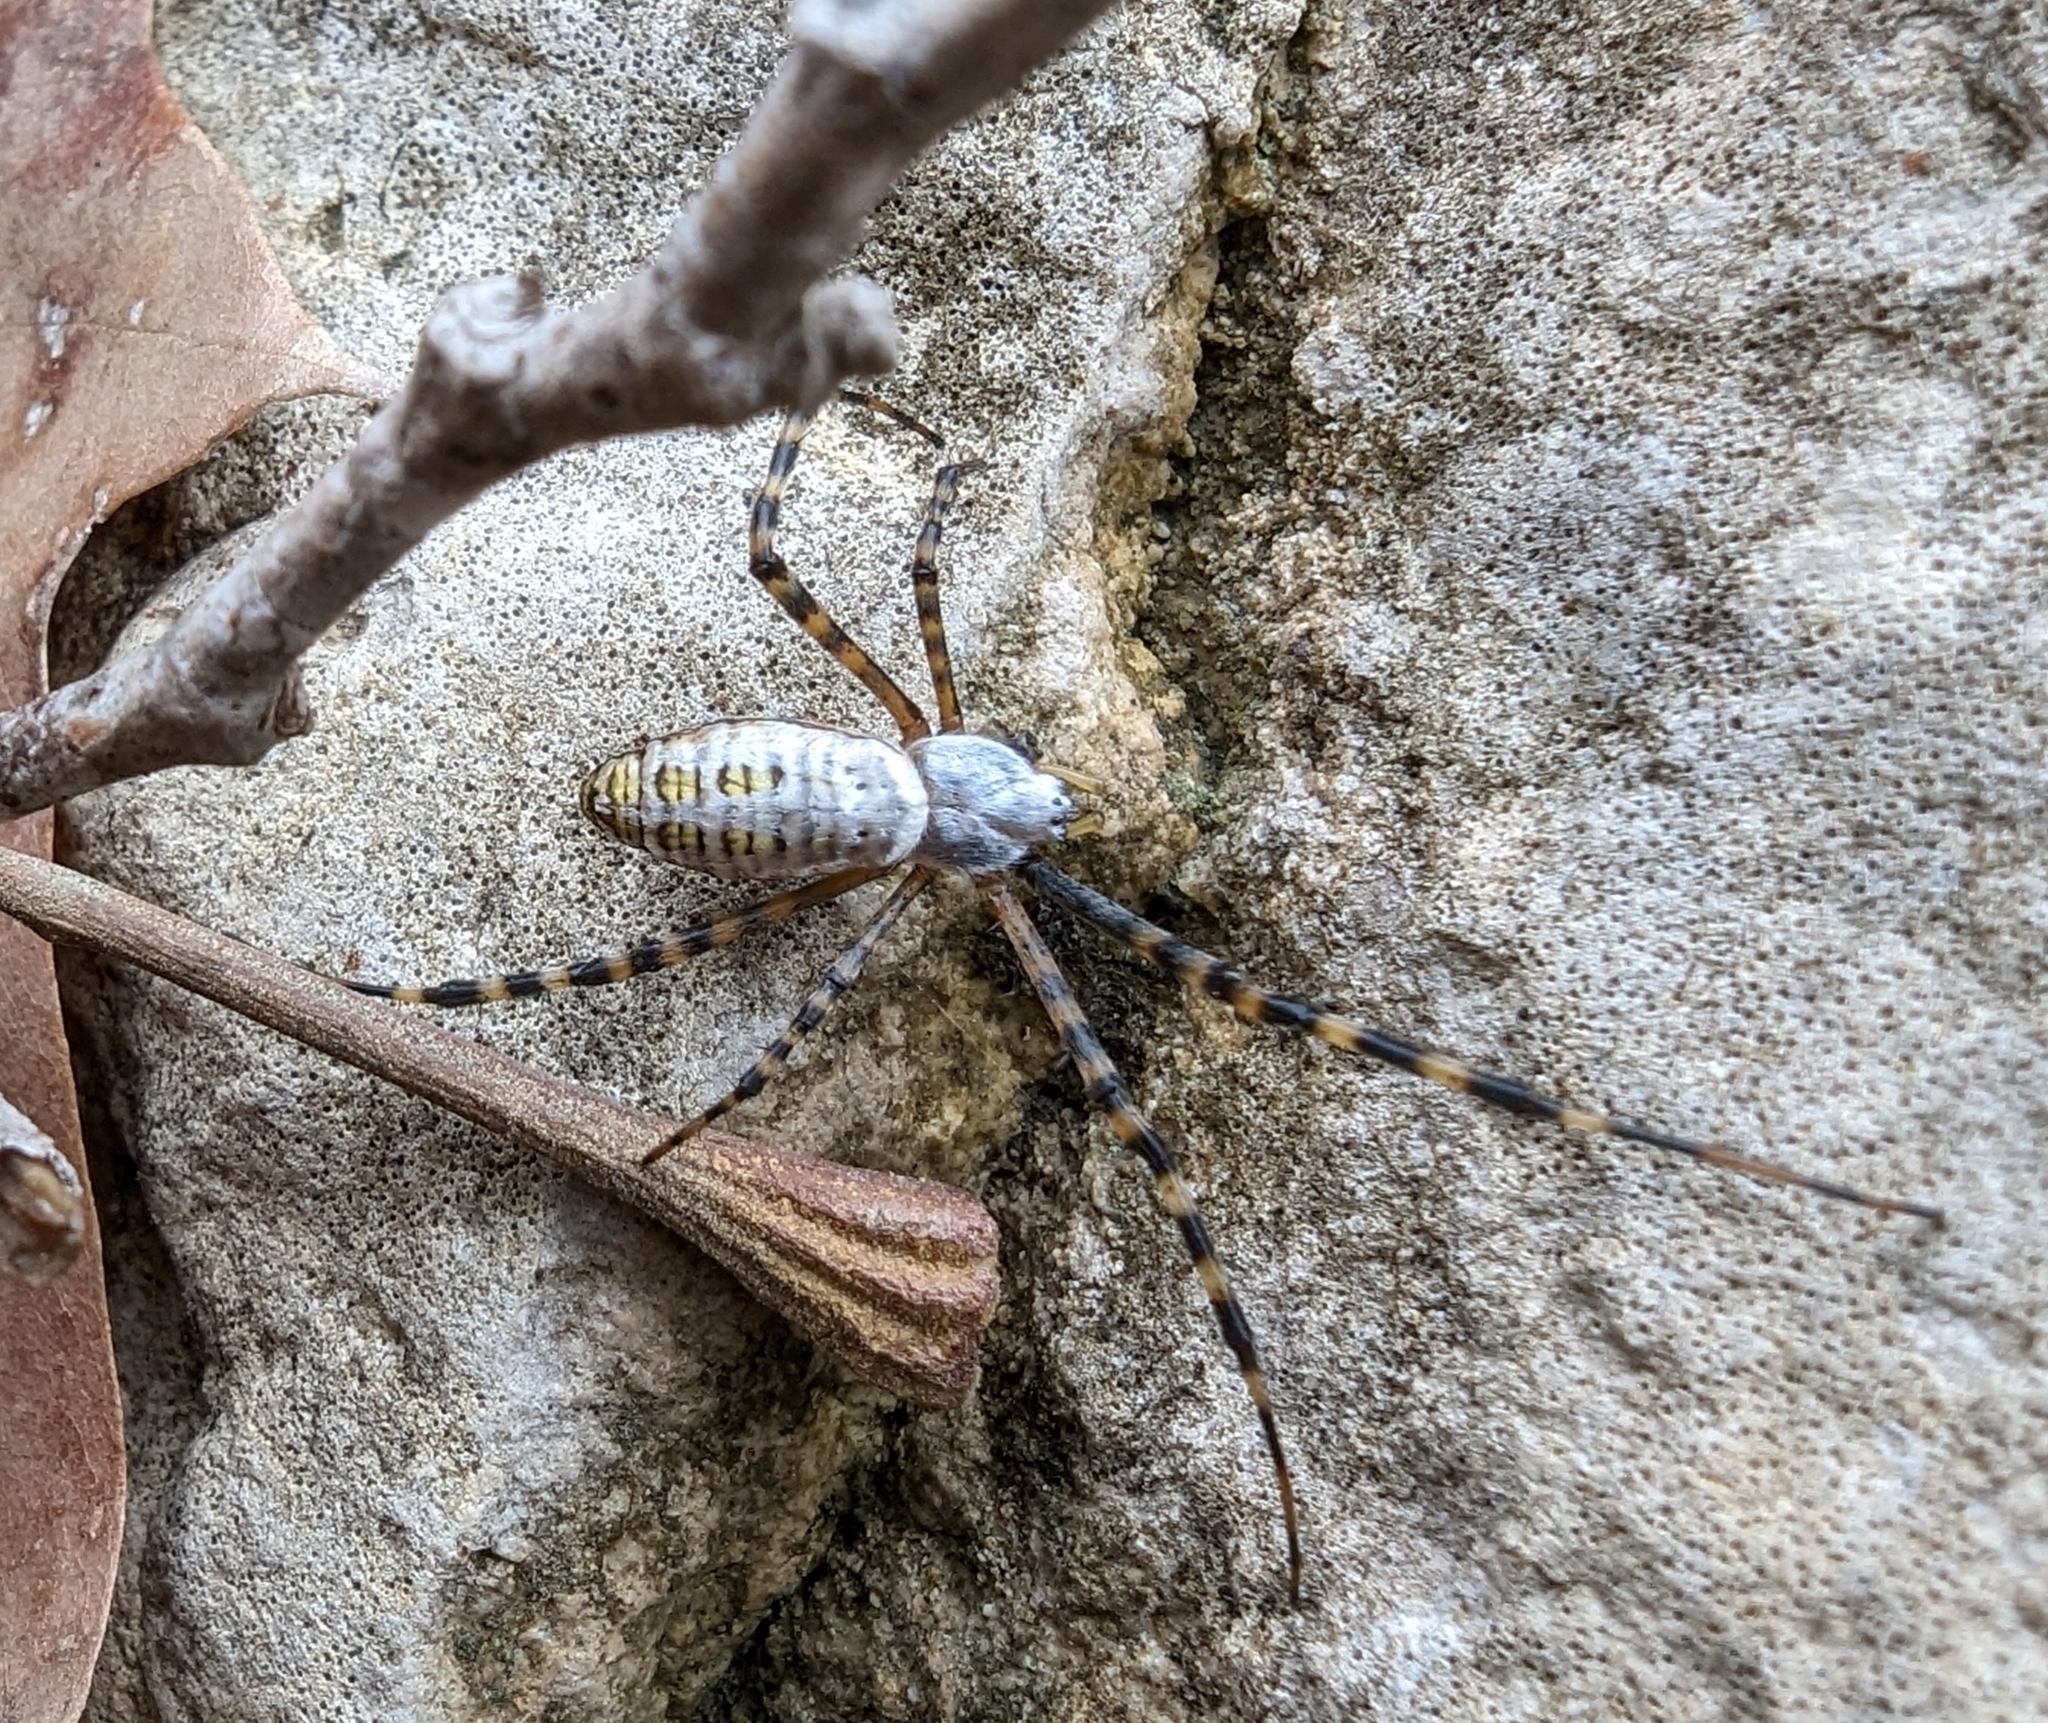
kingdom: Animalia
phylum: Arthropoda
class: Arachnida
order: Araneae
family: Araneidae
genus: Argiope
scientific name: Argiope trifasciata
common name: Banded garden spider
